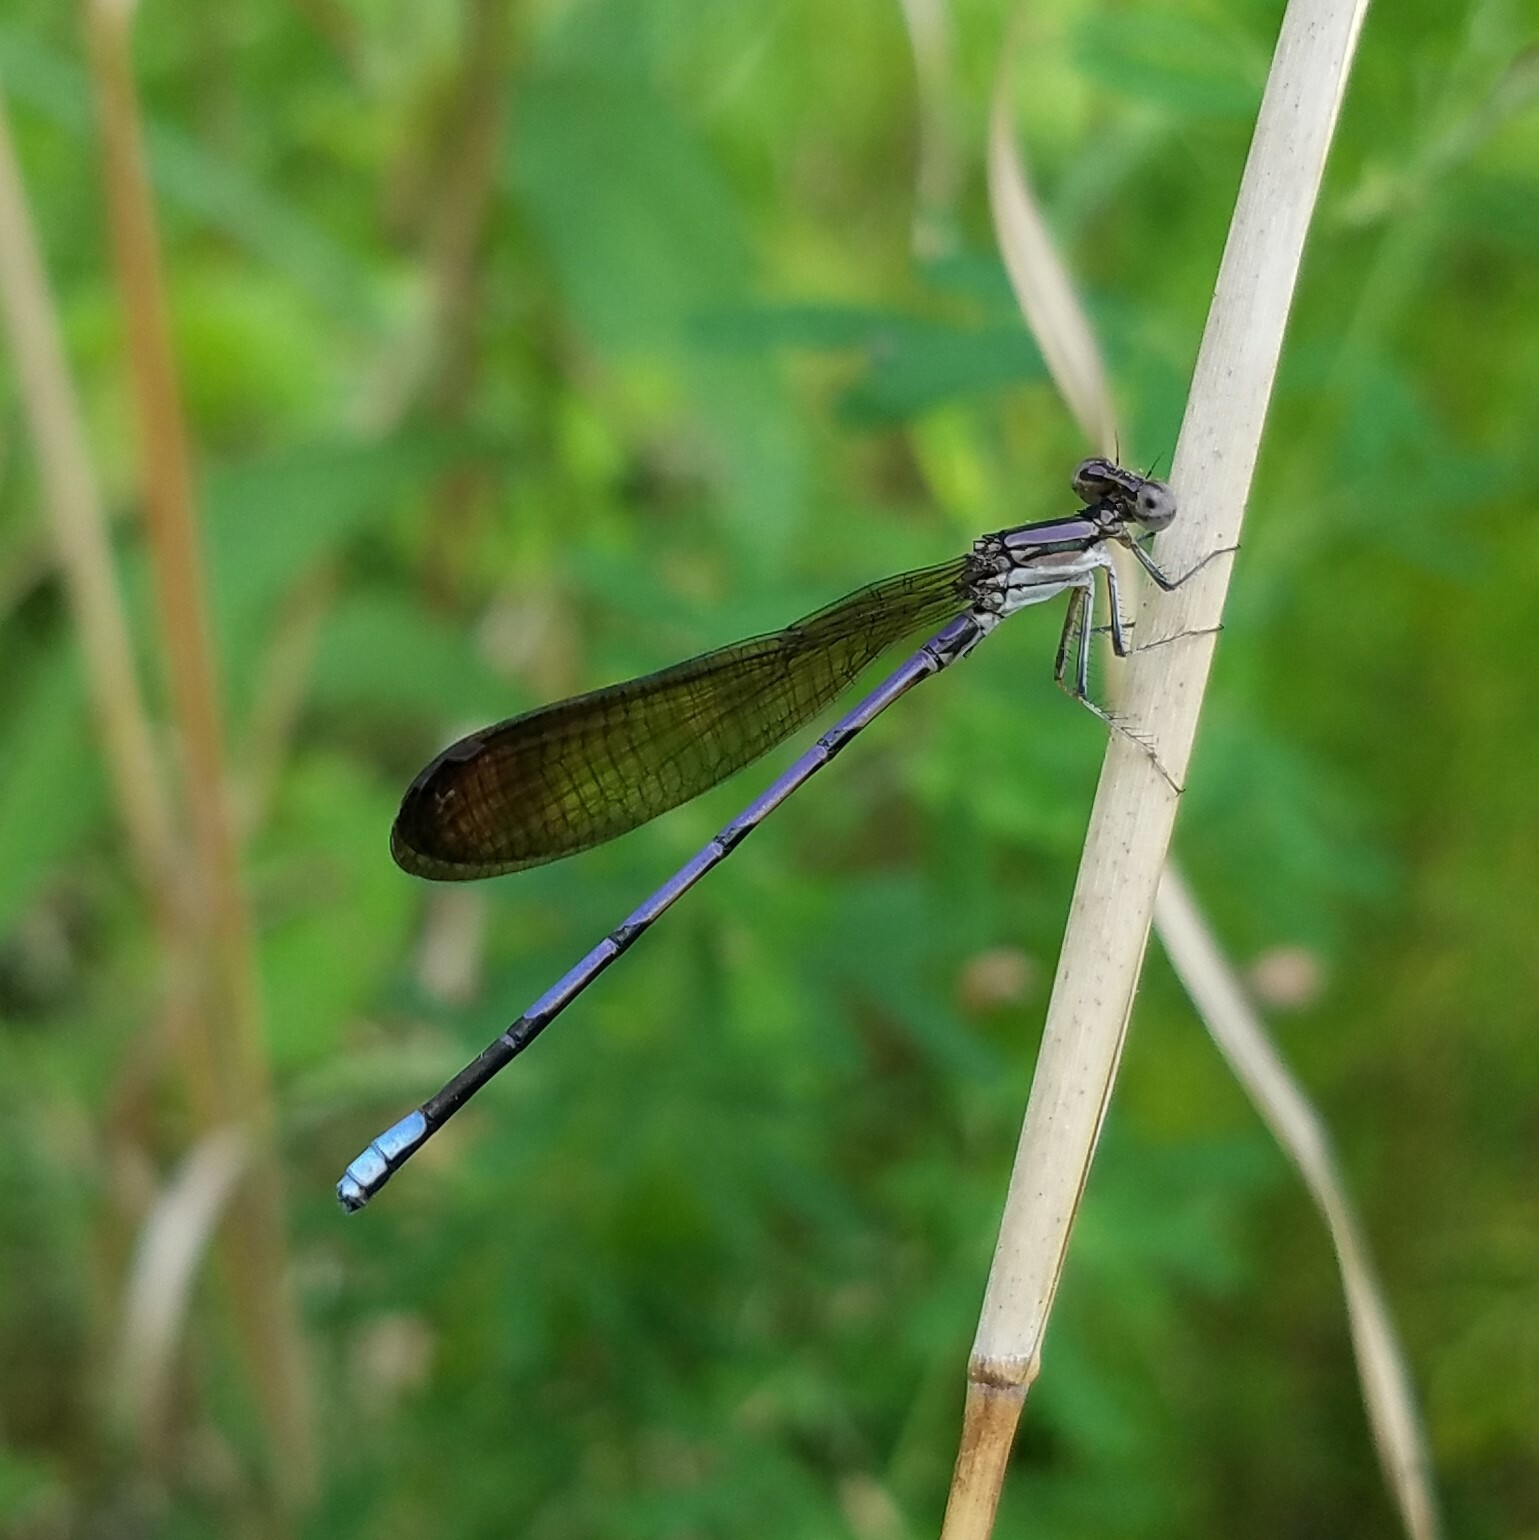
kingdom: Animalia
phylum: Arthropoda
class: Insecta
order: Odonata
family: Coenagrionidae
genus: Argia
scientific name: Argia fumipennis
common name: Variable dancer
